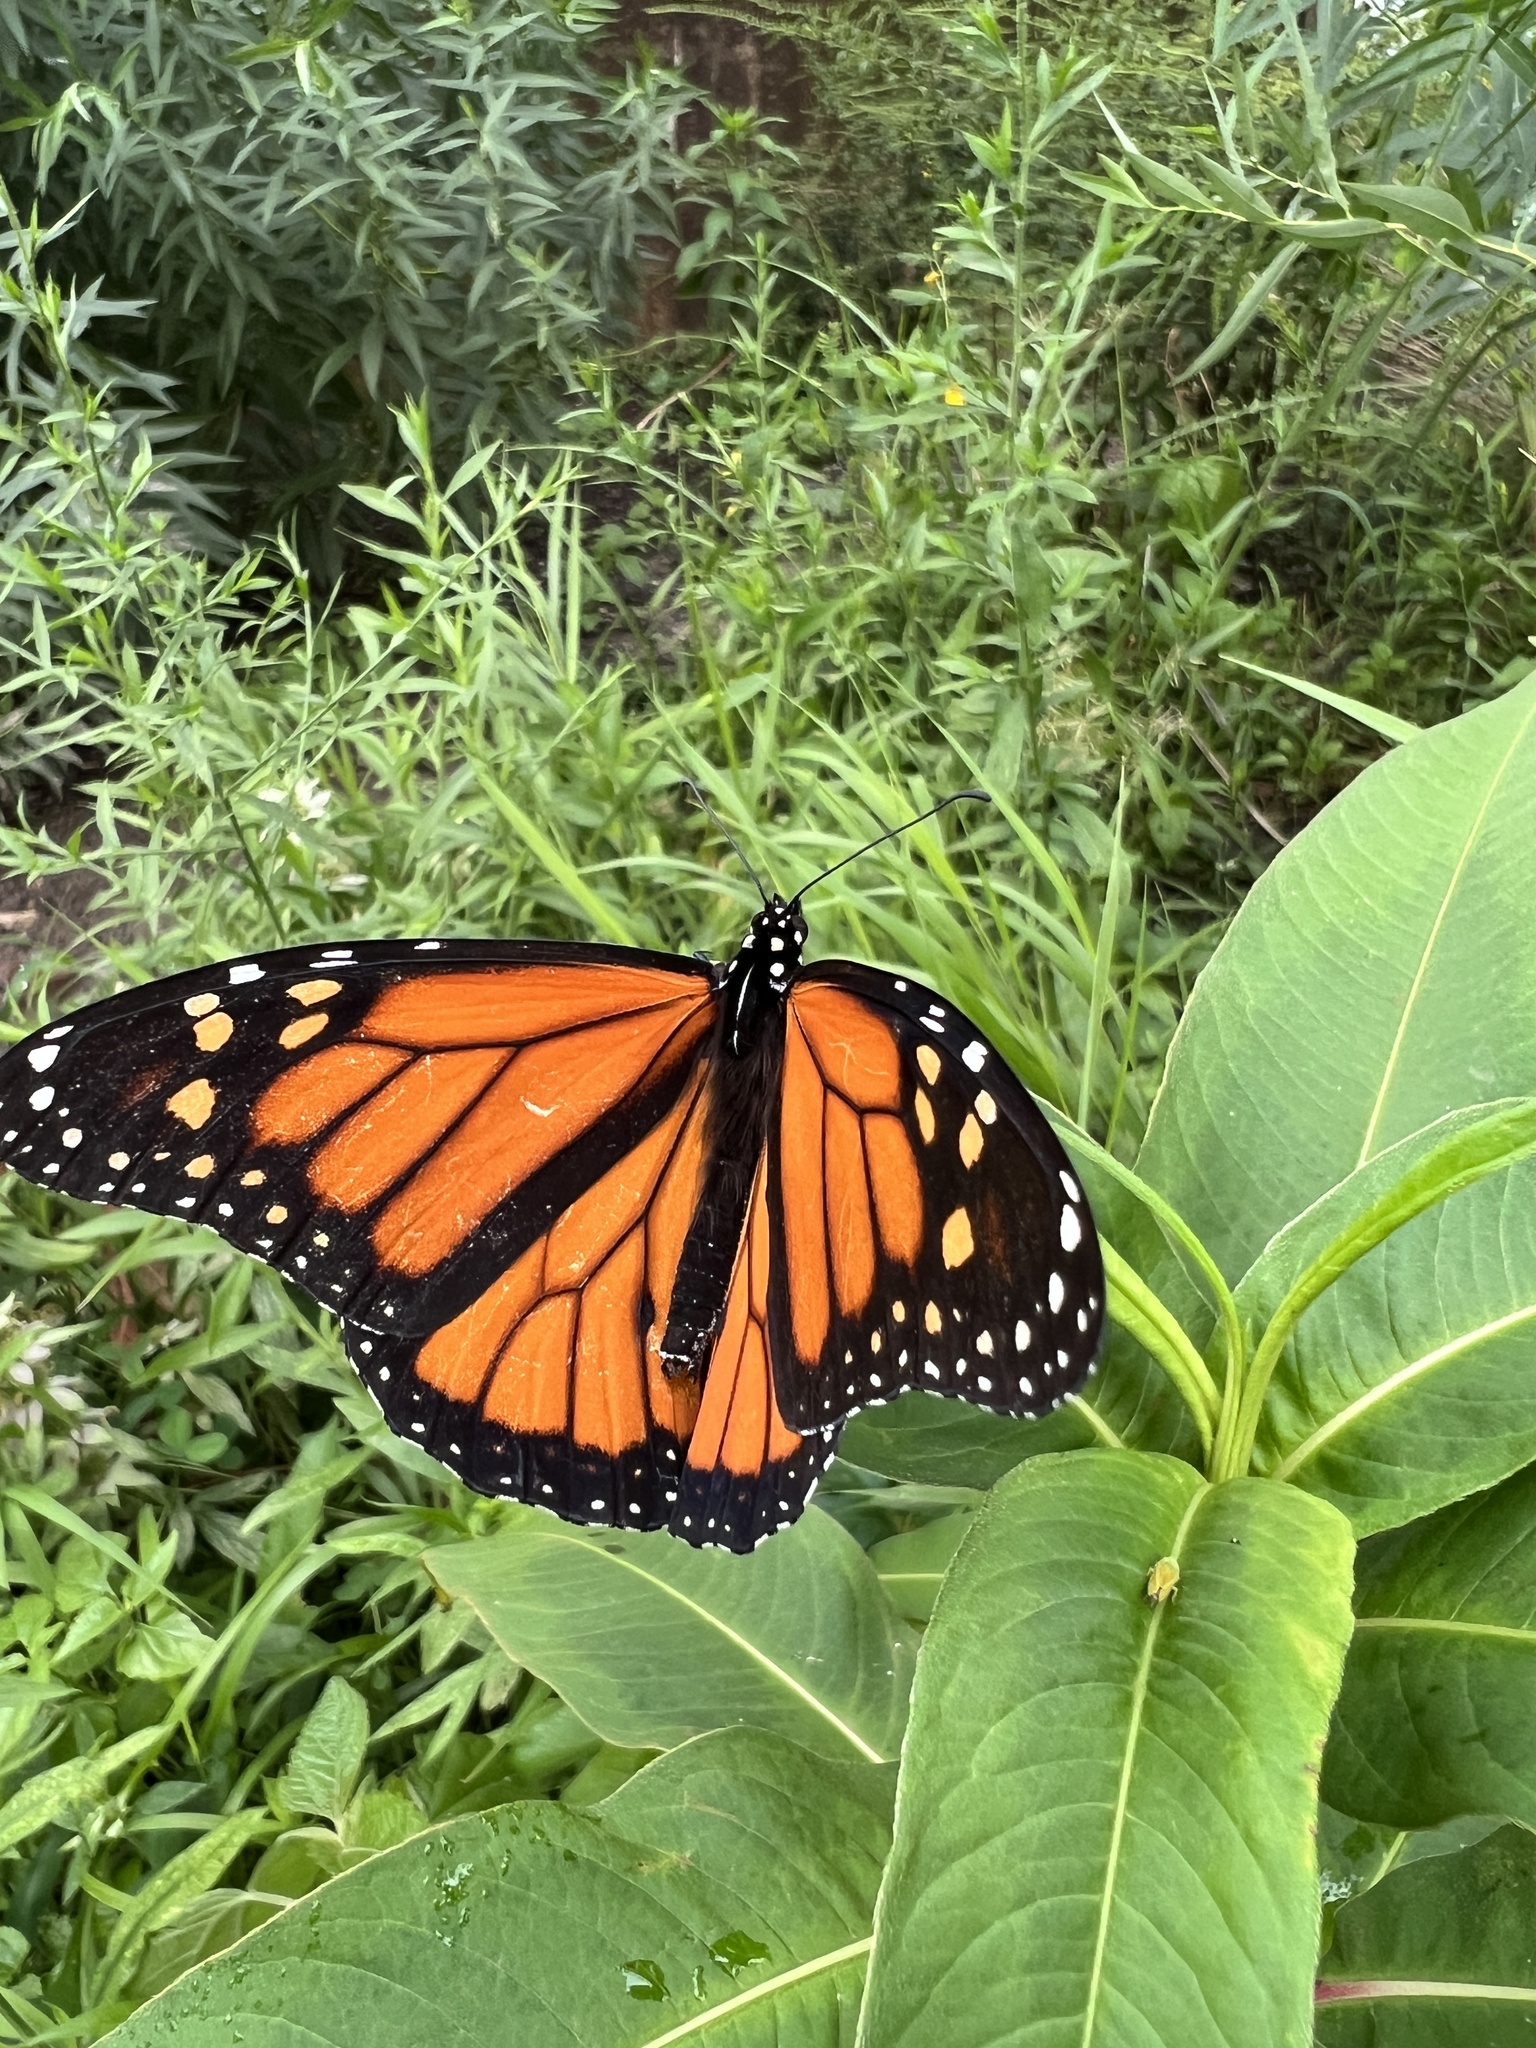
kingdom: Animalia
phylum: Arthropoda
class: Insecta
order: Lepidoptera
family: Nymphalidae
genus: Danaus
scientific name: Danaus plexippus
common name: Monarch
